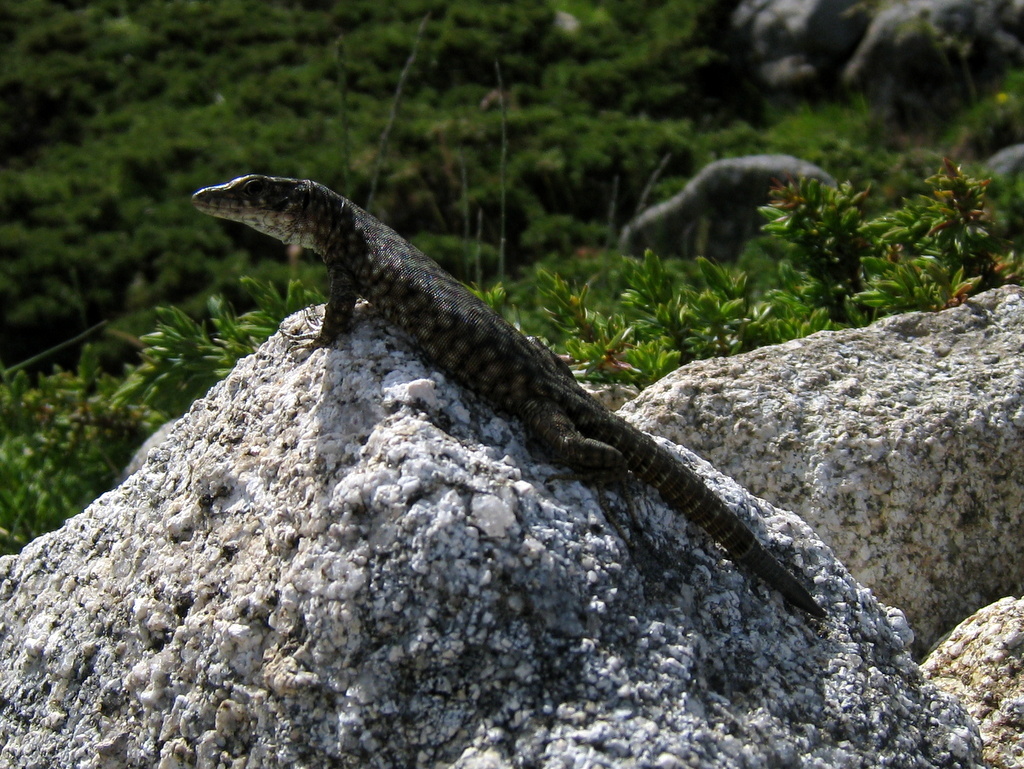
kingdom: Animalia
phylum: Chordata
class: Squamata
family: Lacertidae
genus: Archaeolacerta
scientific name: Archaeolacerta bedriagae
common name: Bedriaga's rock lizard
